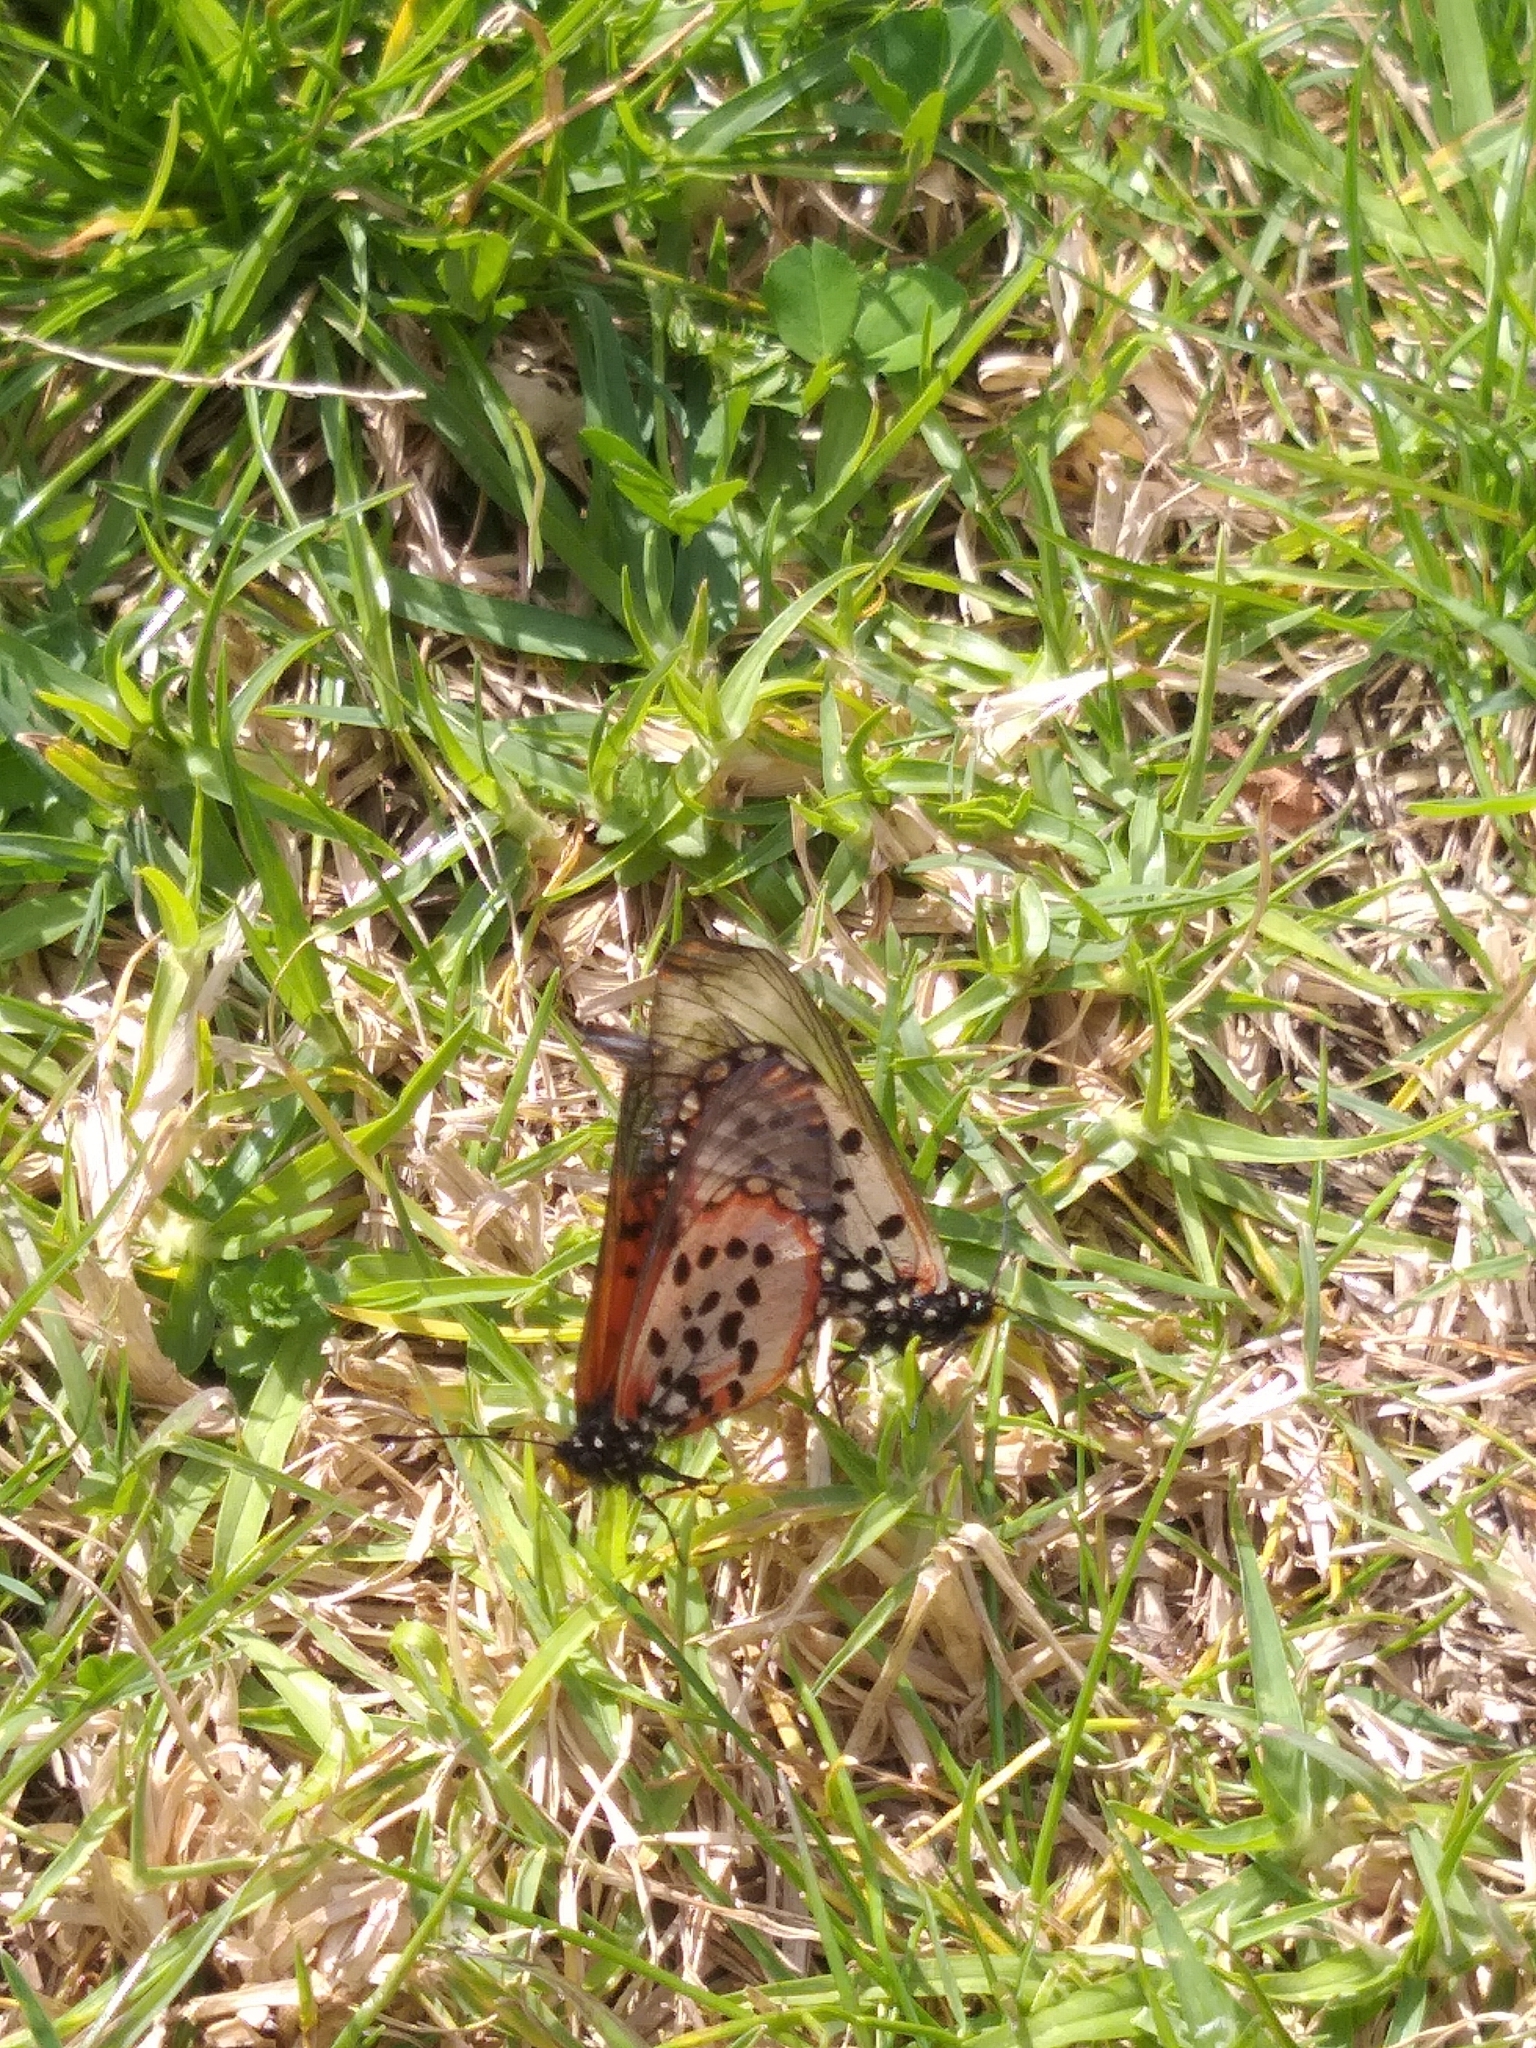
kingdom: Animalia
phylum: Arthropoda
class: Insecta
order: Lepidoptera
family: Nymphalidae
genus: Acraea
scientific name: Acraea horta
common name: Garden acraea
